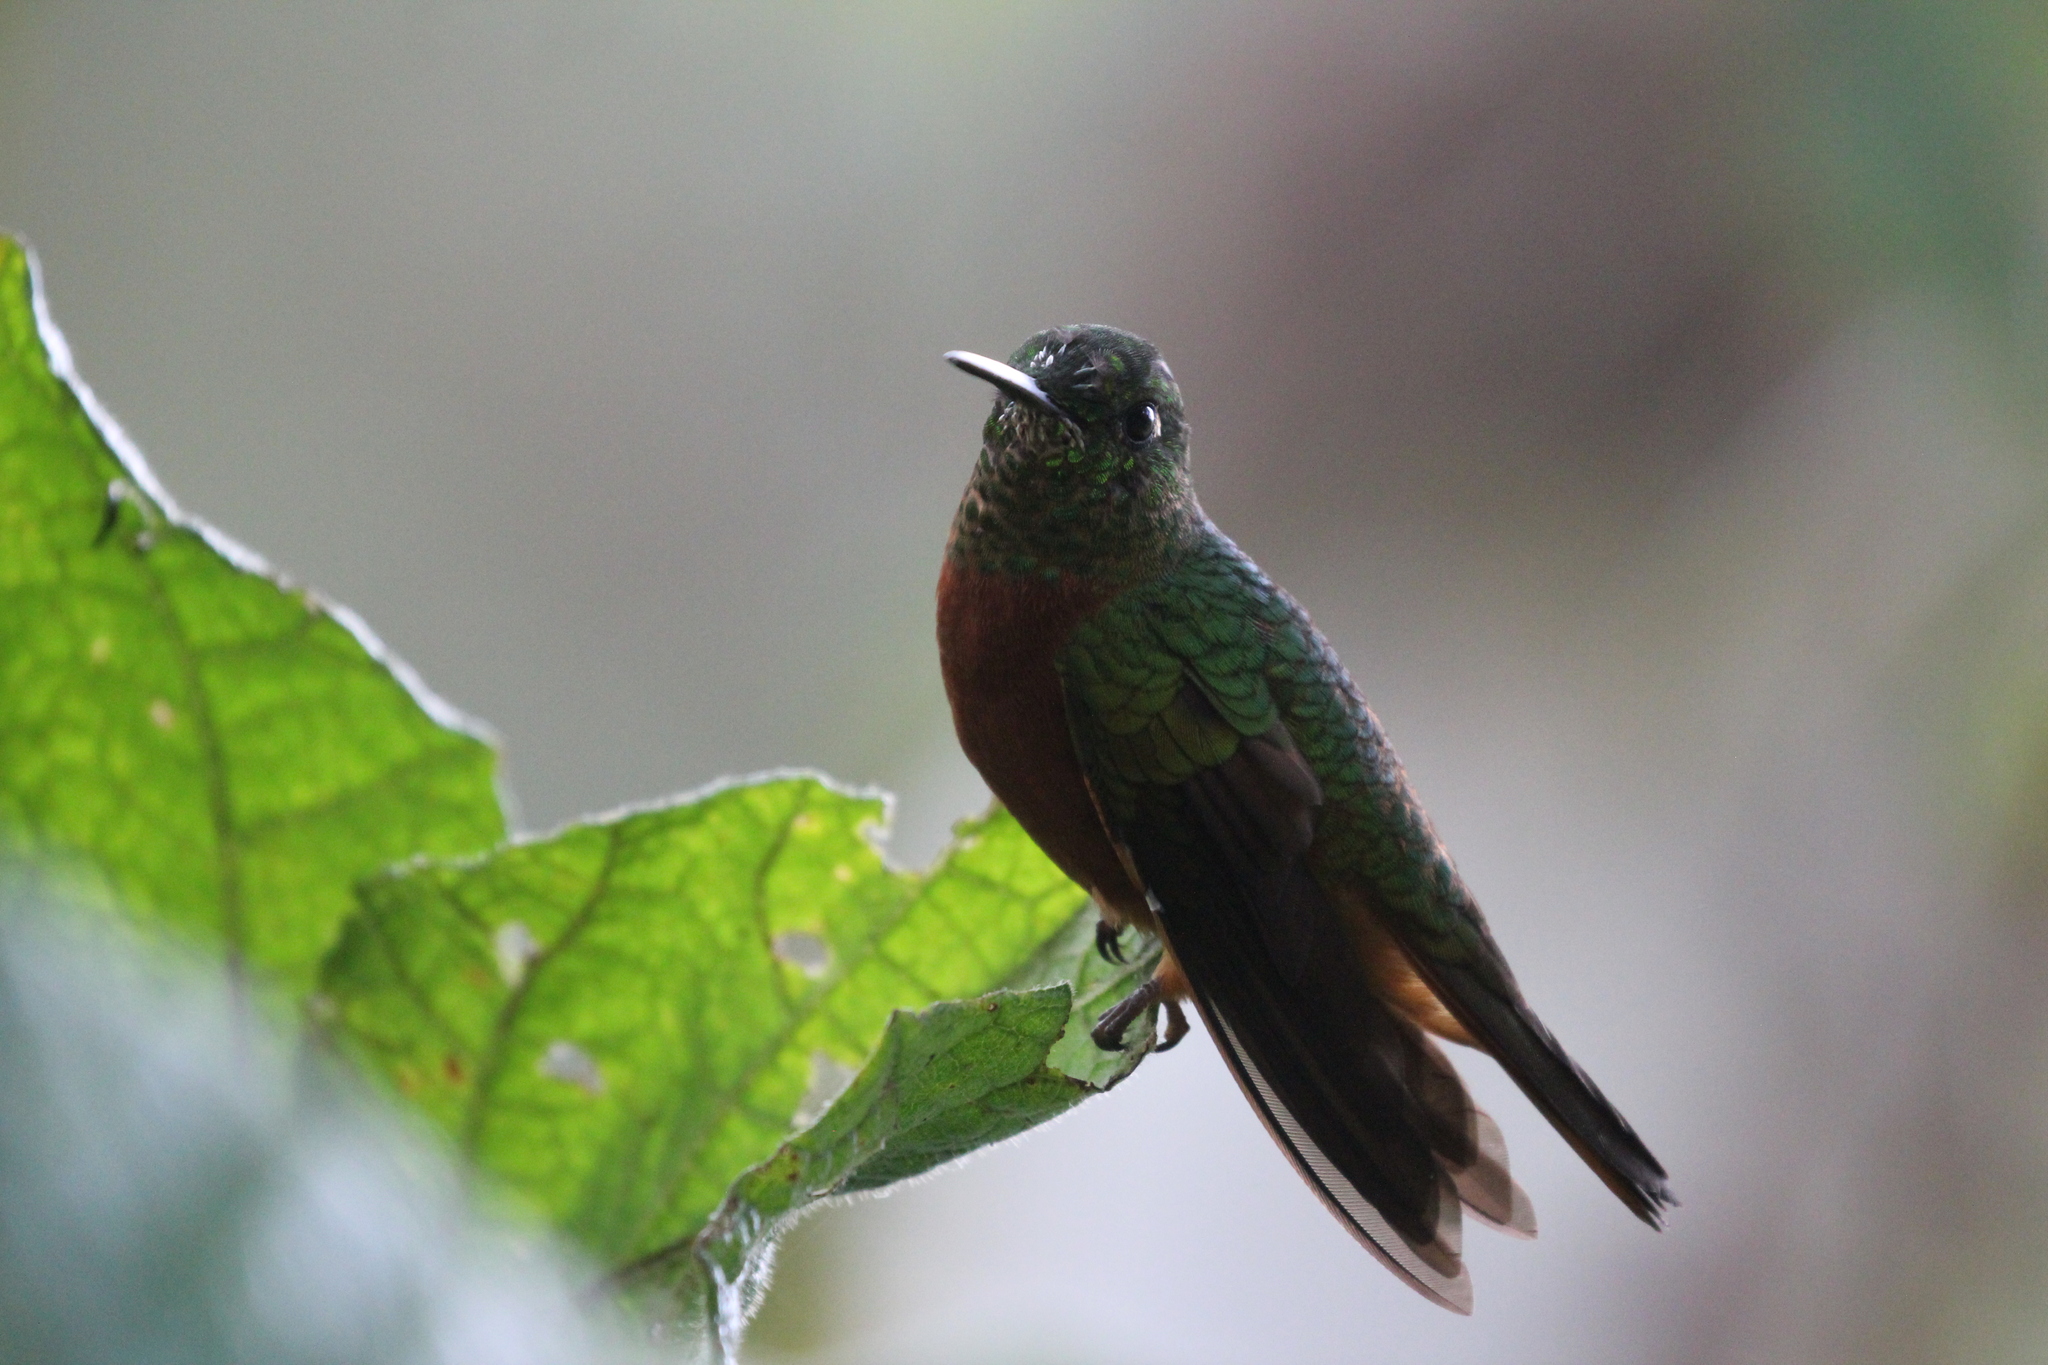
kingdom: Animalia
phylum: Chordata
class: Aves
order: Apodiformes
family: Trochilidae
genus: Boissonneaua
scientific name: Boissonneaua matthewsii
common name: Chestnut-breasted coronet
